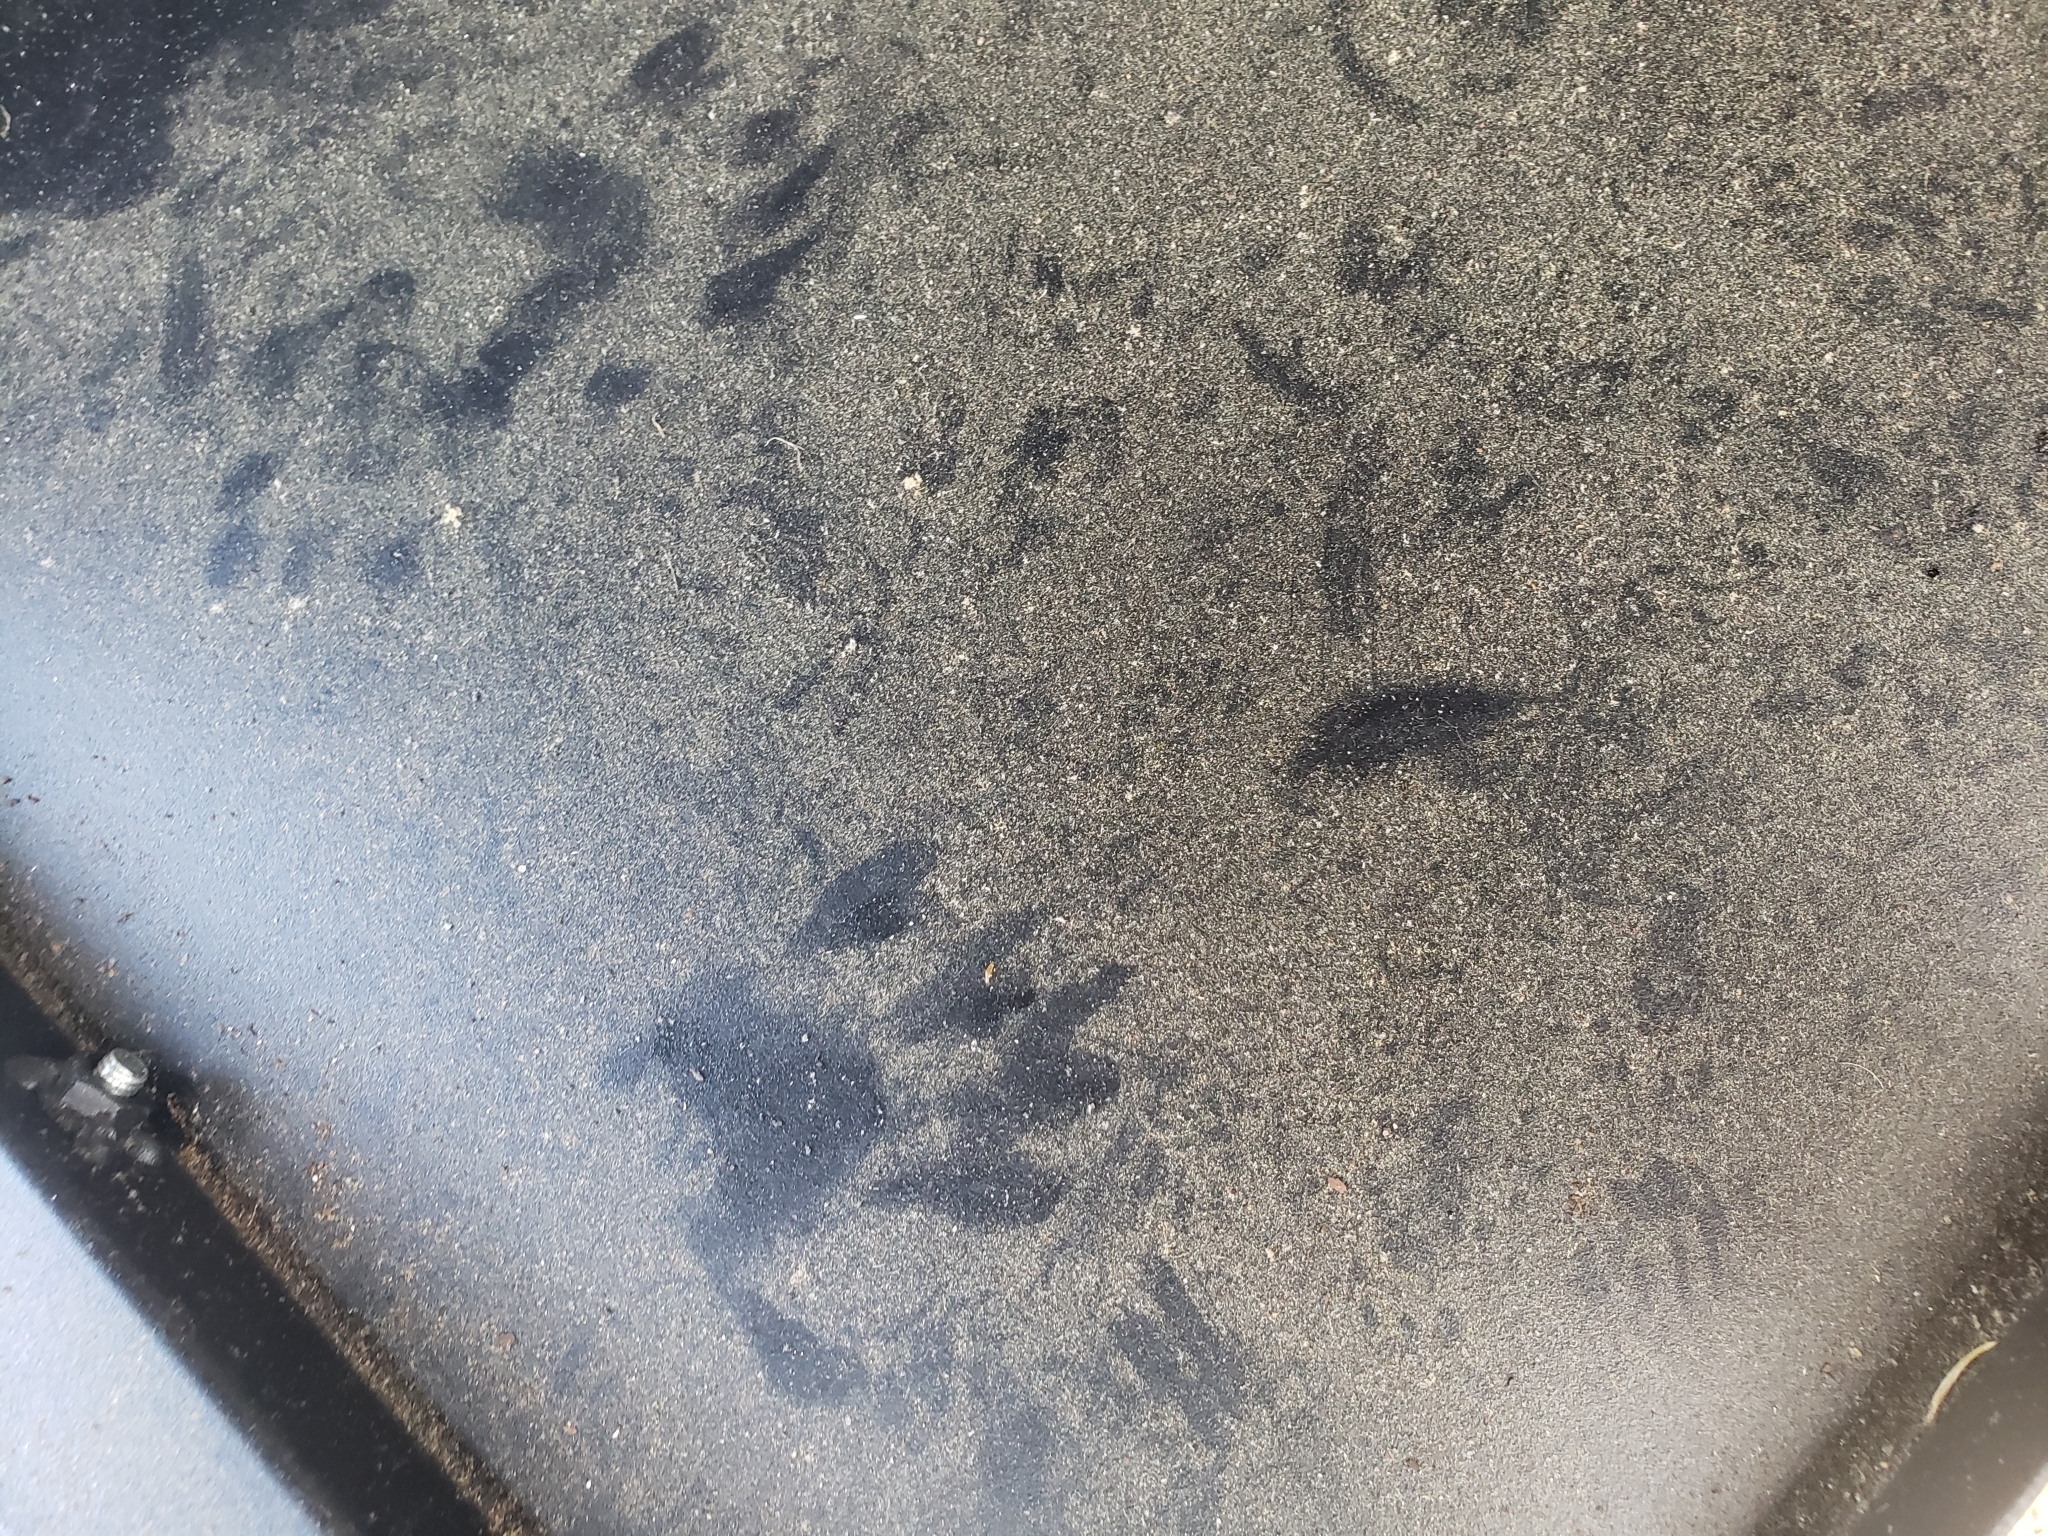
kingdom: Animalia
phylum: Chordata
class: Mammalia
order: Carnivora
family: Procyonidae
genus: Procyon
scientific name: Procyon lotor
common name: Raccoon
